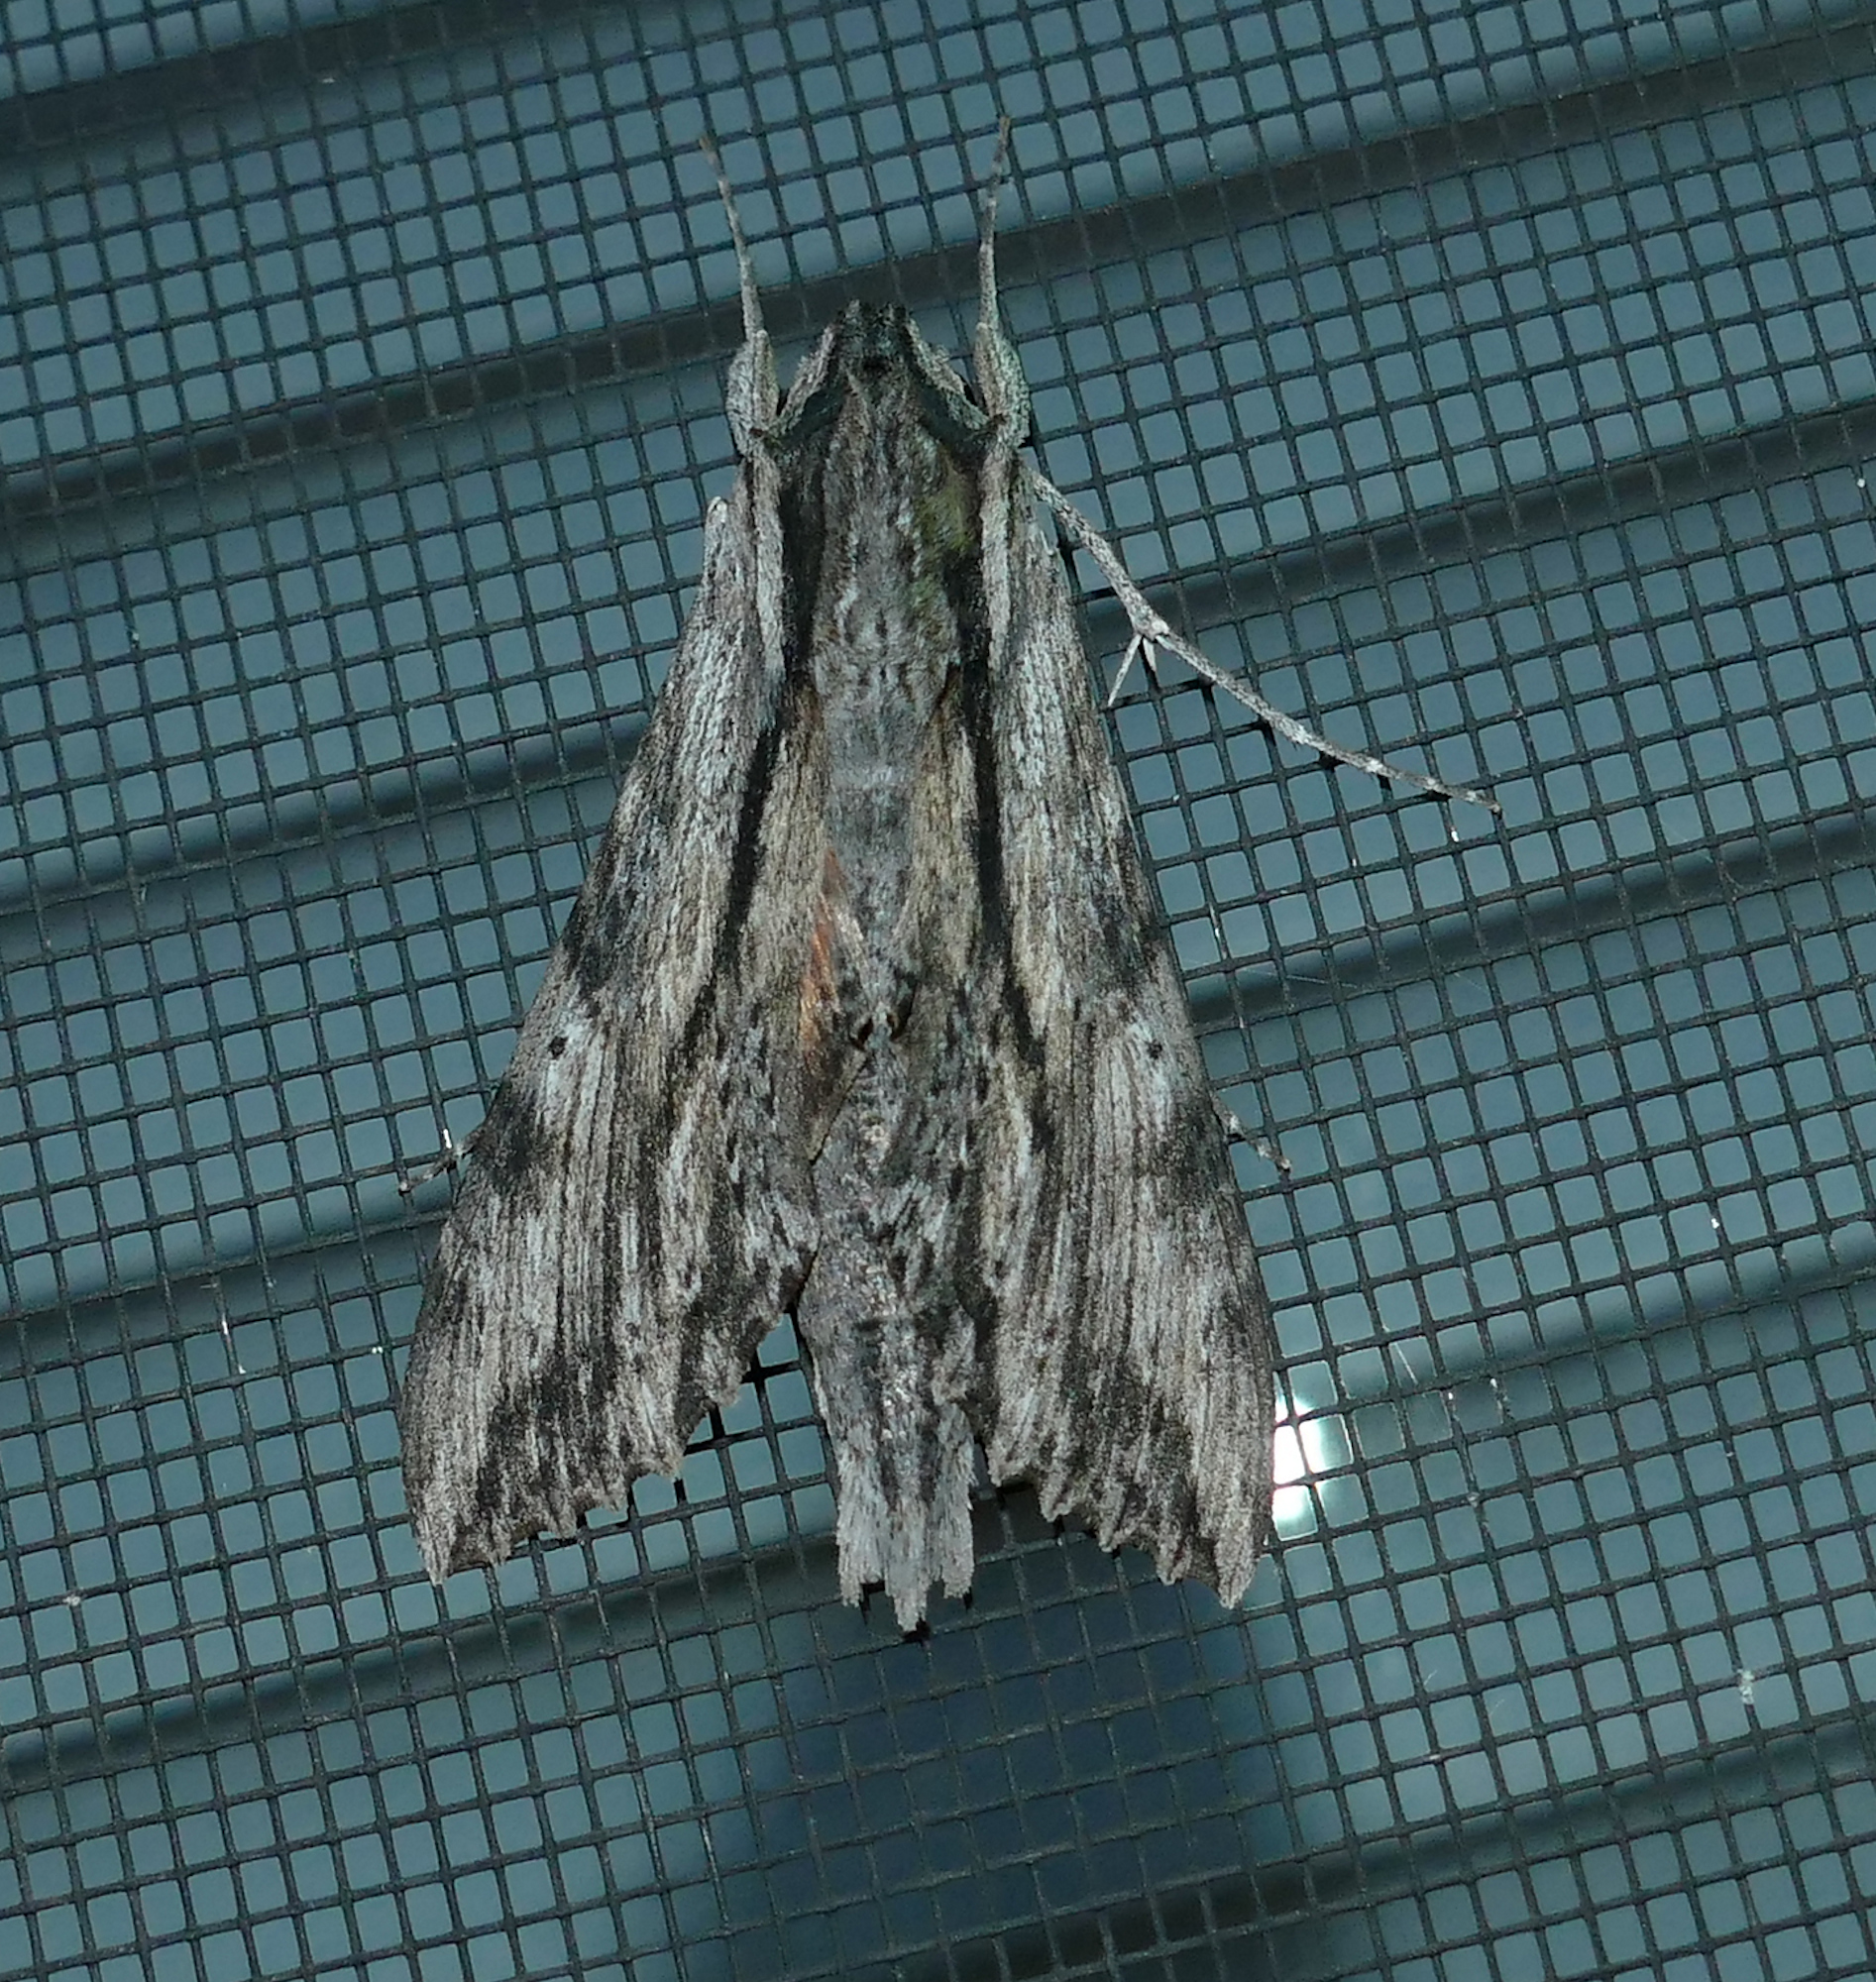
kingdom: Animalia
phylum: Arthropoda
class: Insecta
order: Lepidoptera
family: Sphingidae
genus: Erinnyis
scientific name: Erinnyis obscura
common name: Obscure sphinx
